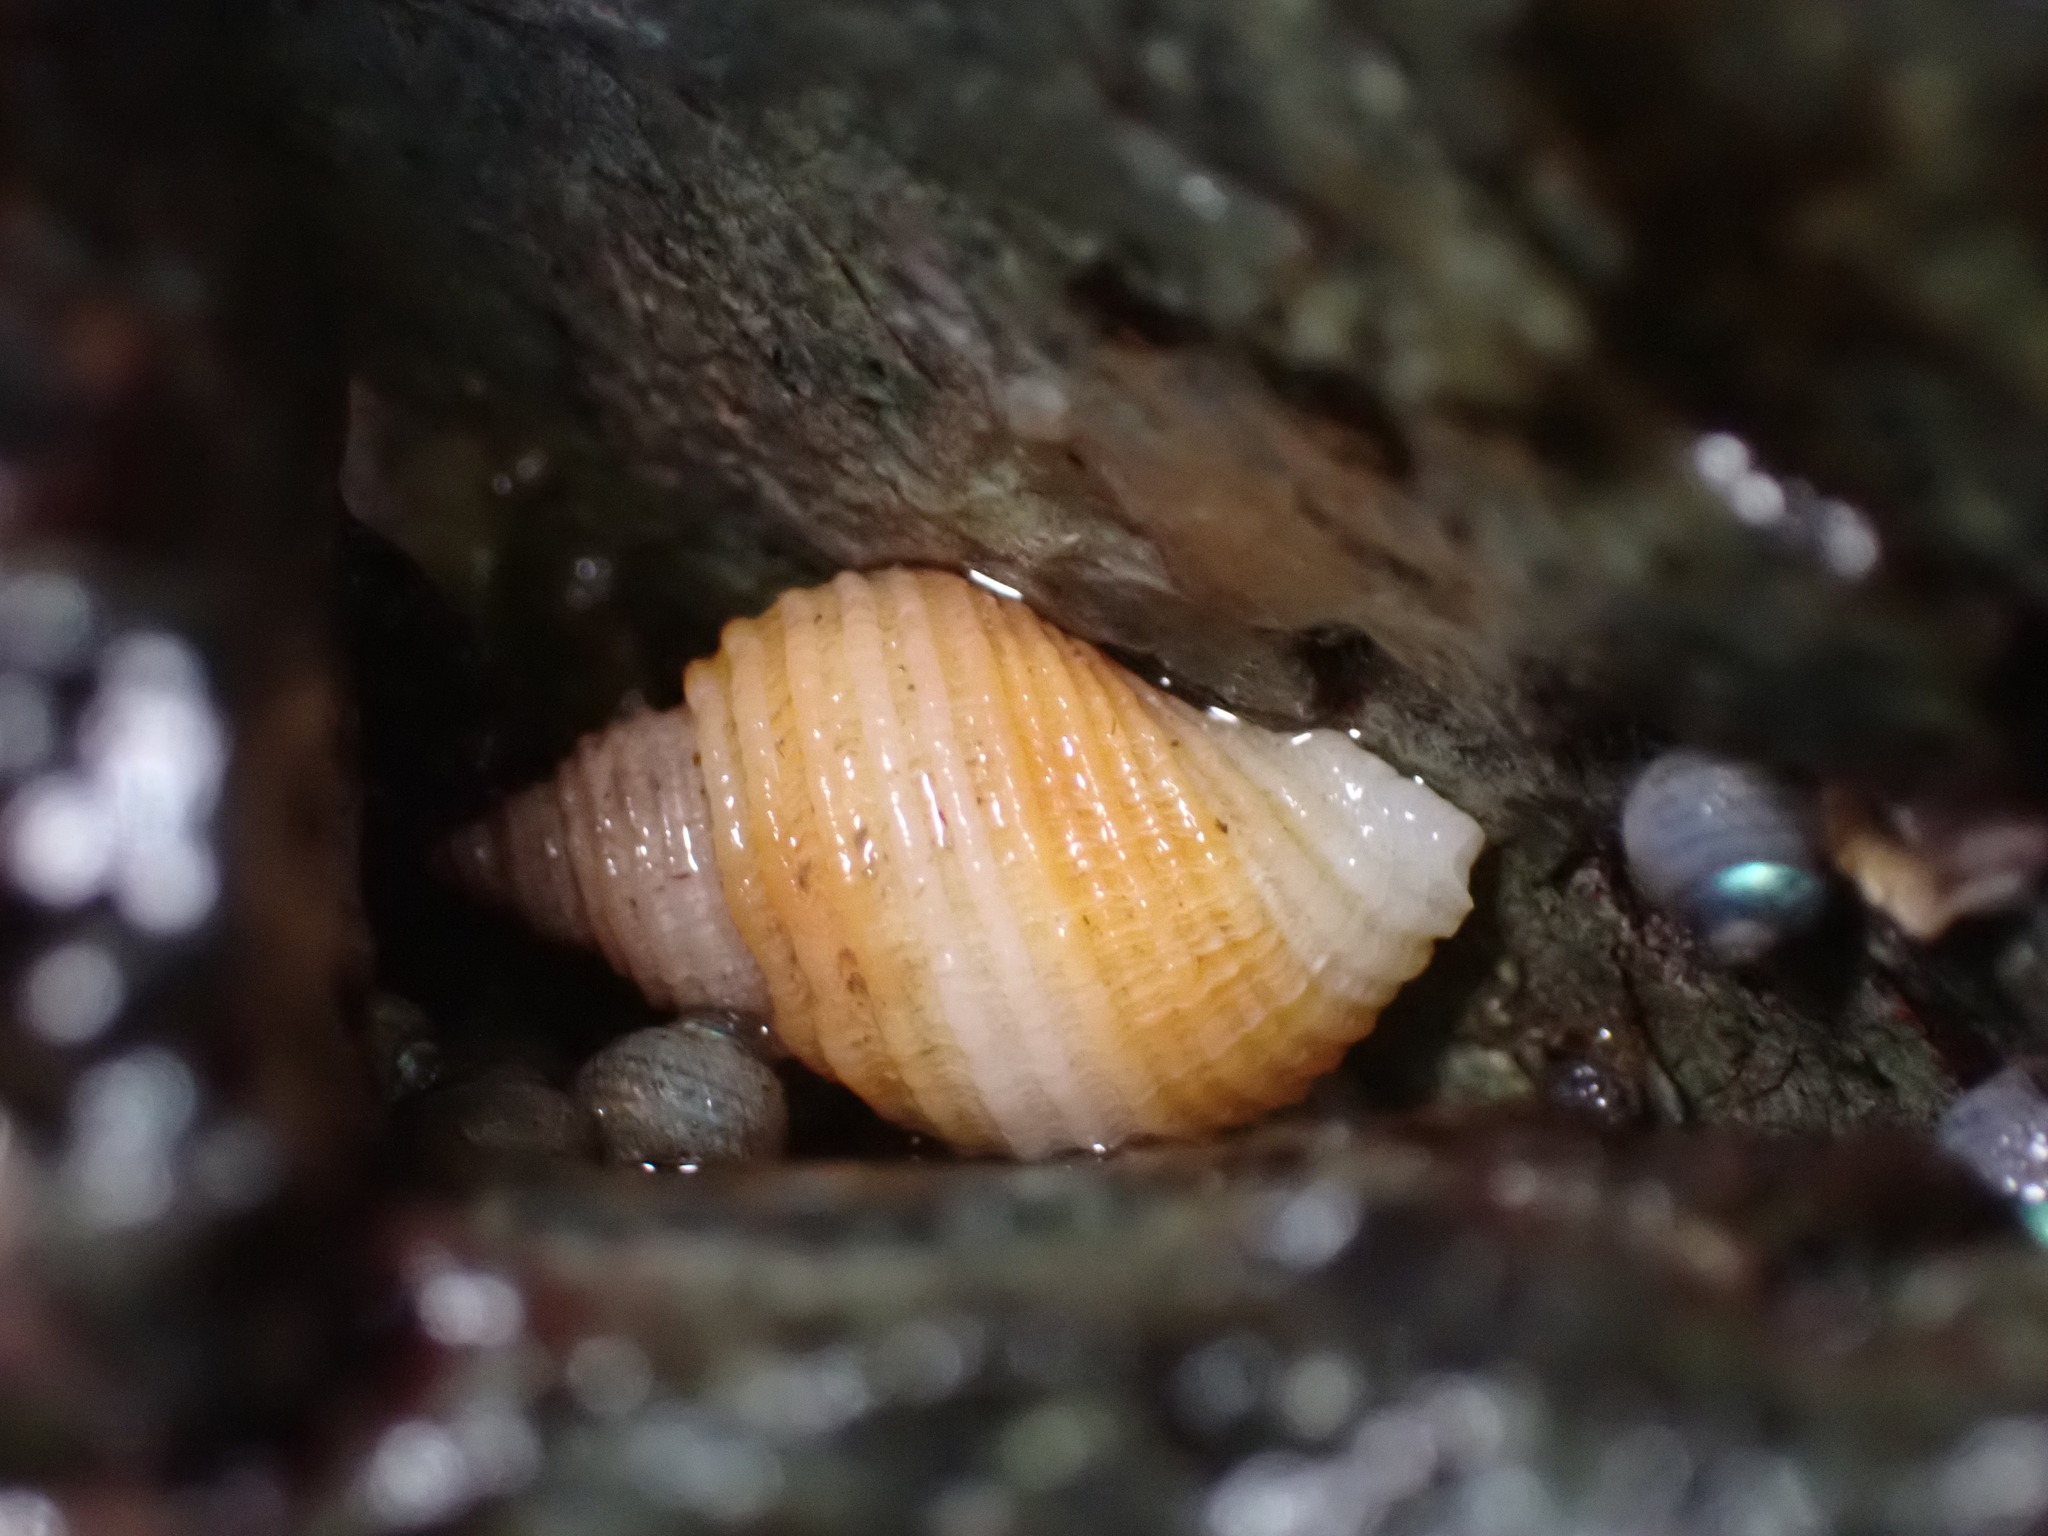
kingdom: Animalia
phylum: Mollusca
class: Gastropoda
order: Neogastropoda
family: Muricidae
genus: Nucella
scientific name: Nucella canaliculata
